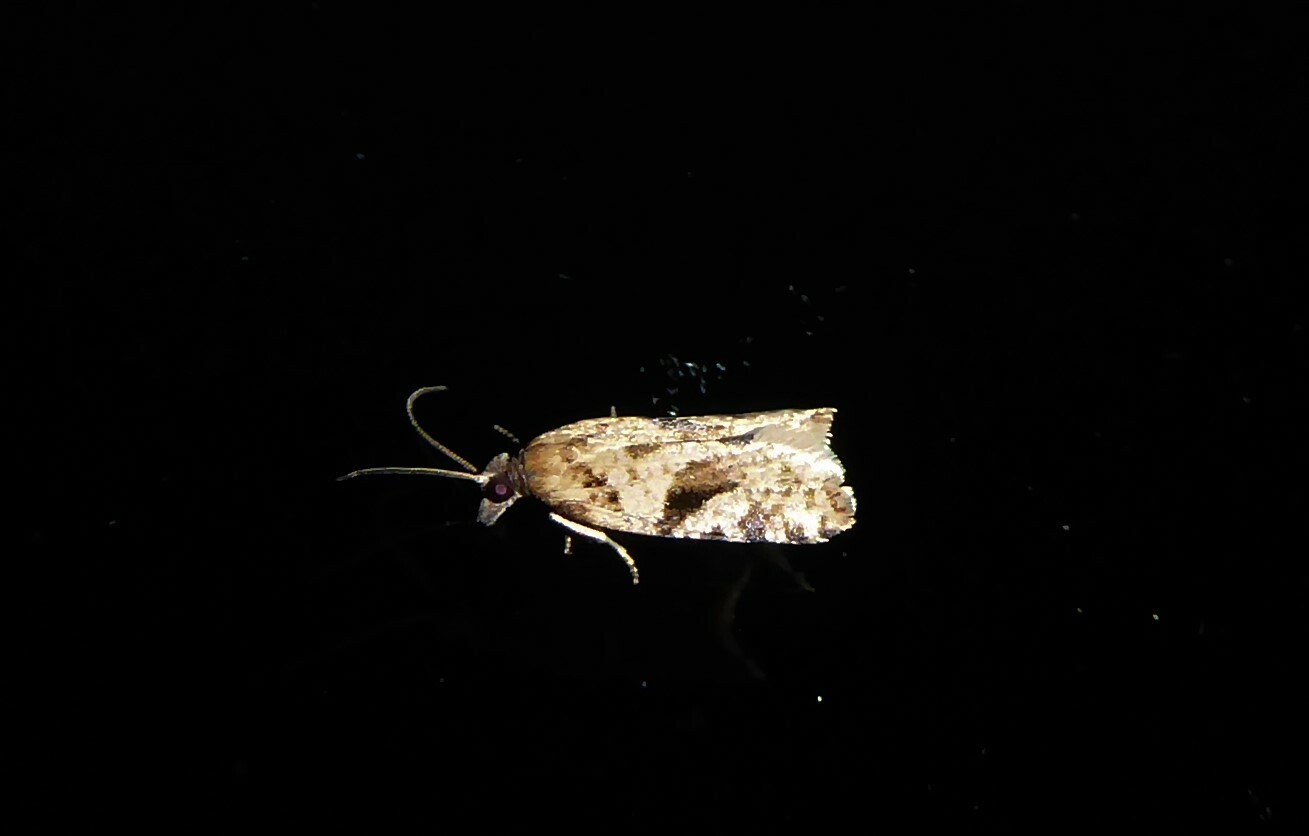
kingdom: Animalia
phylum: Arthropoda
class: Insecta
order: Lepidoptera
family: Tortricidae
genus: Capua
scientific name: Capua semiferana
